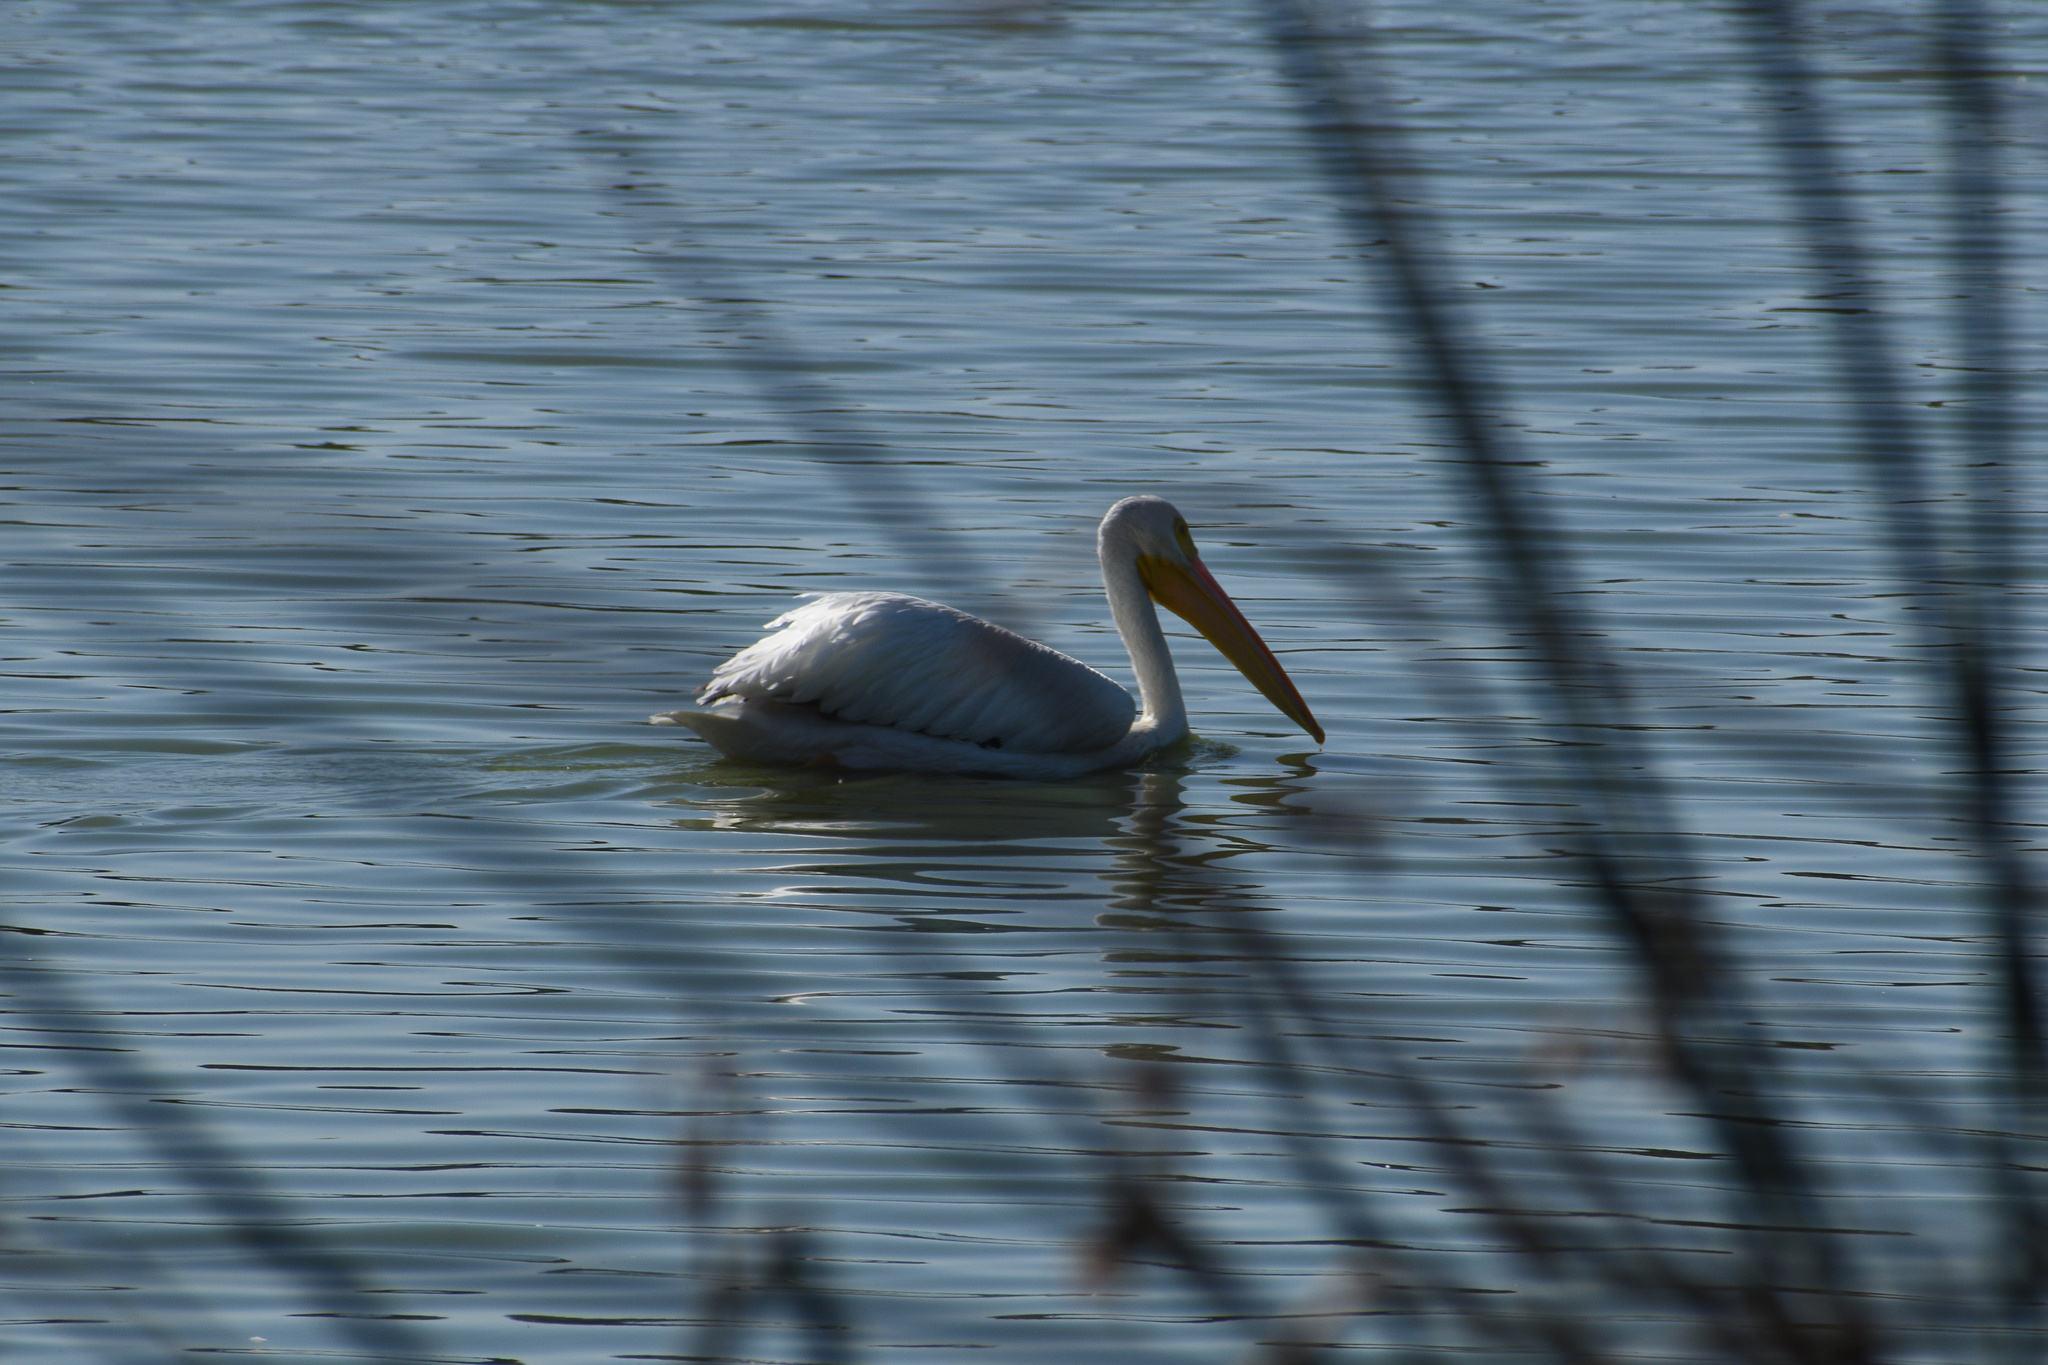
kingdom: Animalia
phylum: Chordata
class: Aves
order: Pelecaniformes
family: Pelecanidae
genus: Pelecanus
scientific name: Pelecanus erythrorhynchos
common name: American white pelican
